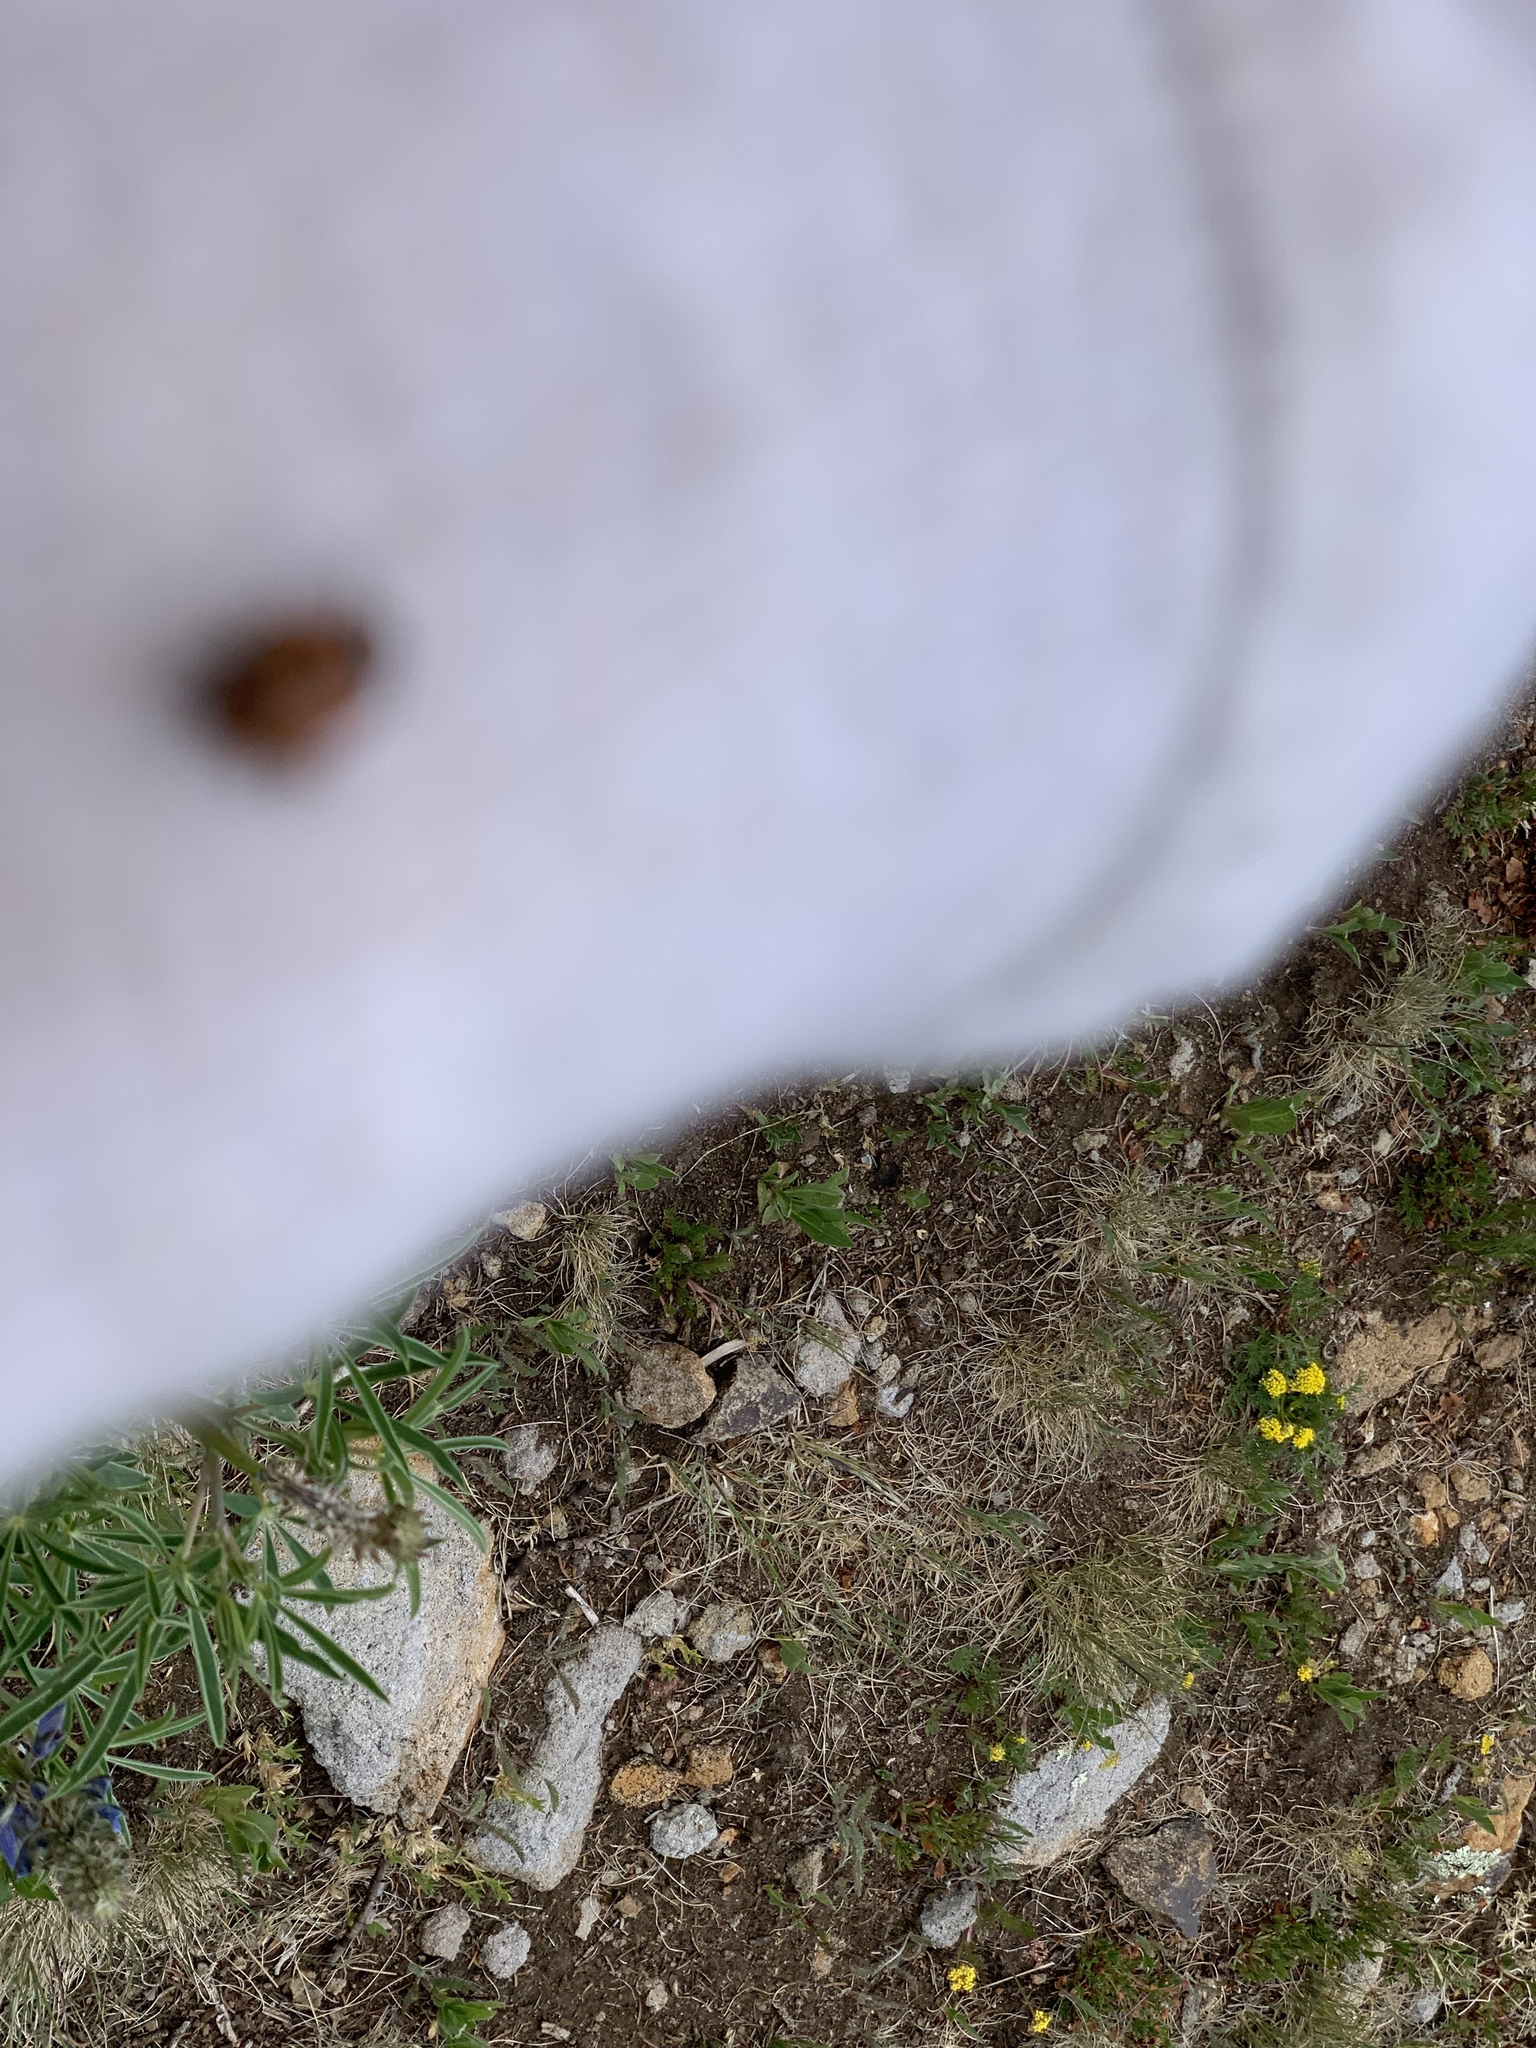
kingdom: Animalia
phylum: Arthropoda
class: Insecta
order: Coleoptera
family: Coccinellidae
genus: Hippodamia
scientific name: Hippodamia convergens
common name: Convergent lady beetle
